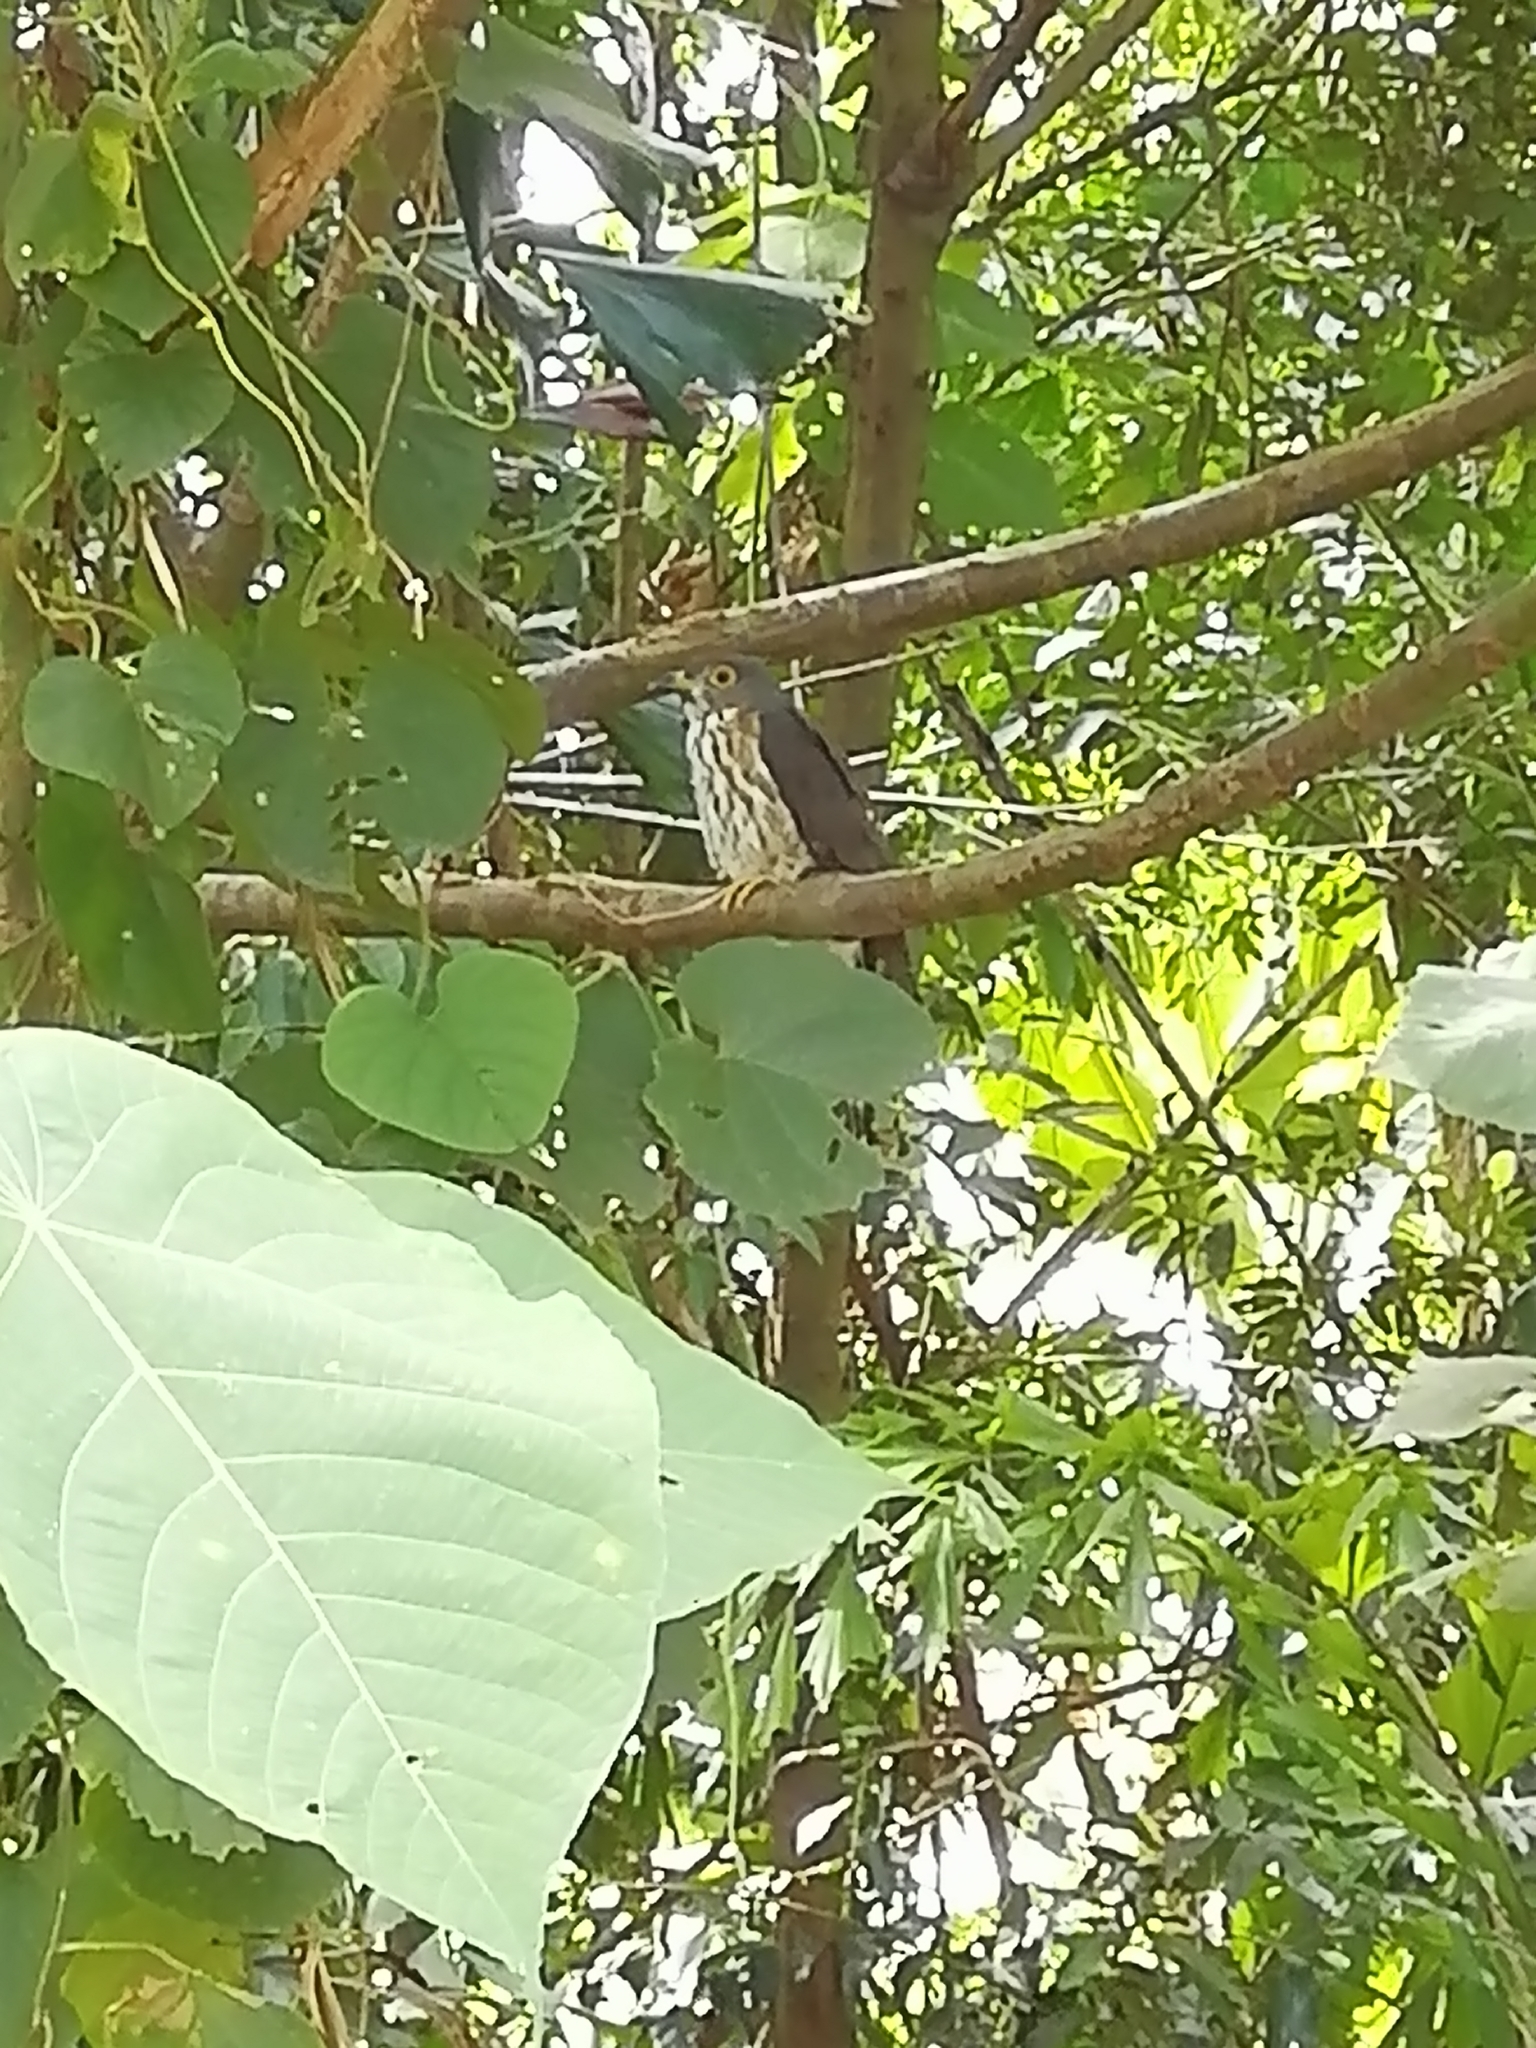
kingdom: Animalia
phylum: Chordata
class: Aves
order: Cuculiformes
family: Cuculidae
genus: Hierococcyx
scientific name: Hierococcyx
